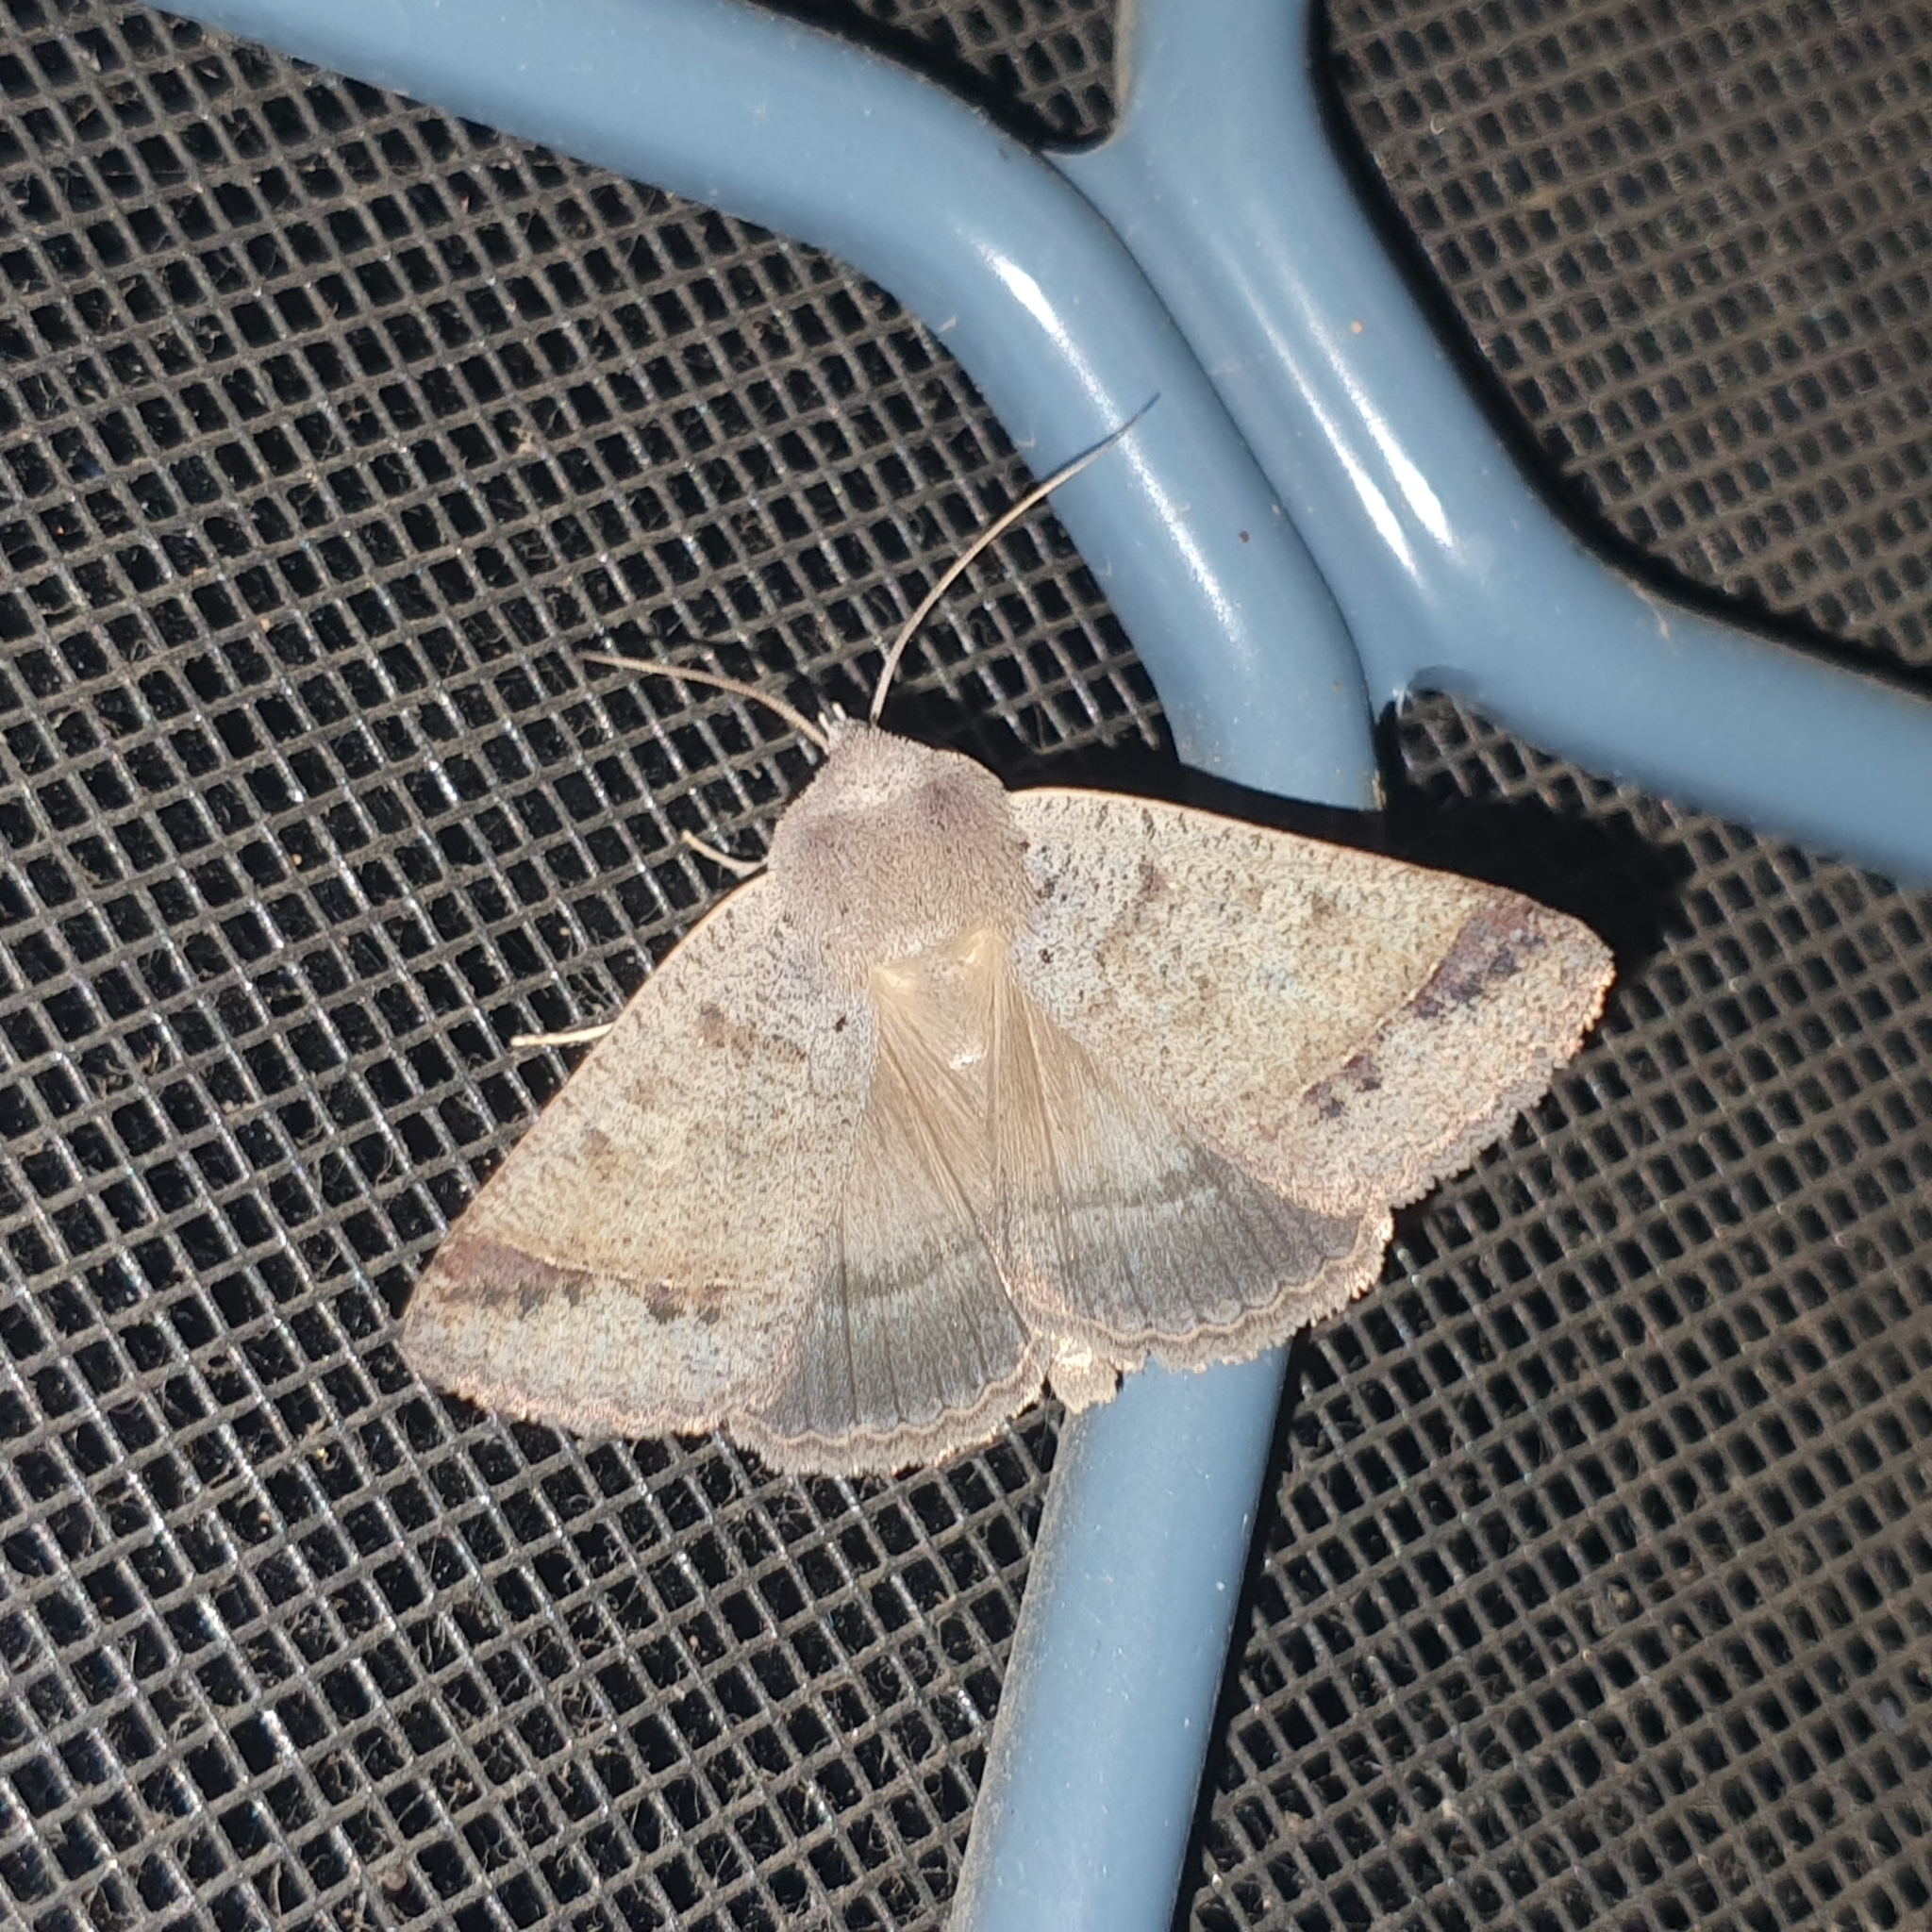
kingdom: Animalia
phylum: Arthropoda
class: Insecta
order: Lepidoptera
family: Erebidae
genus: Pantydia
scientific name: Pantydia sparsa
